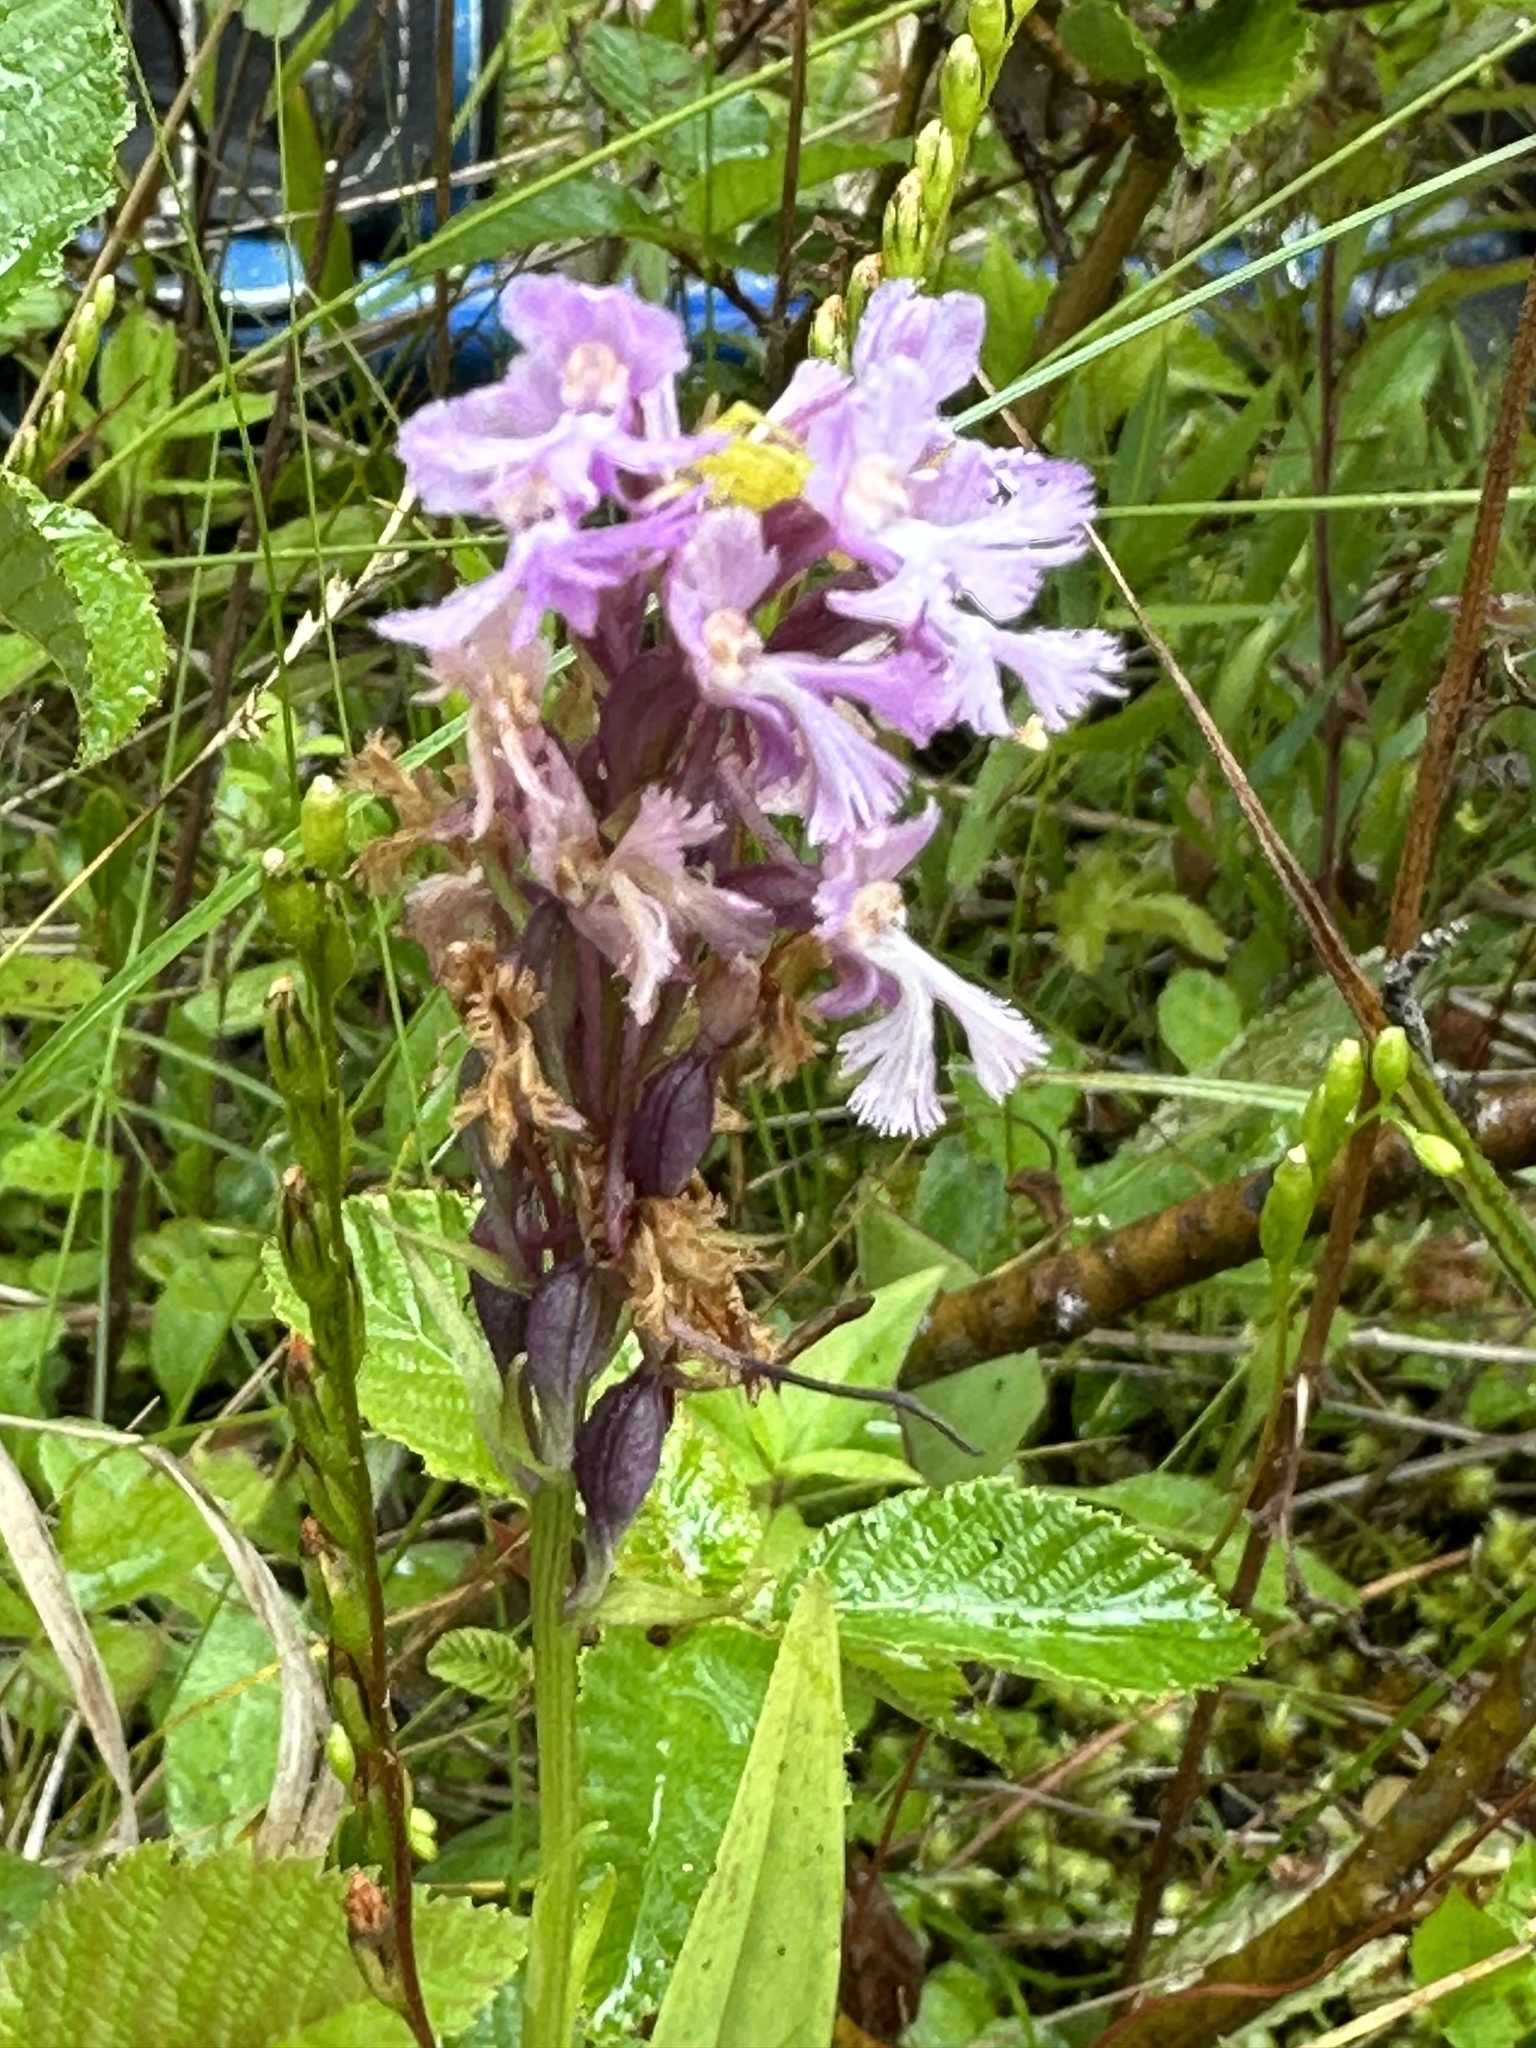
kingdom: Plantae
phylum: Tracheophyta
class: Liliopsida
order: Asparagales
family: Orchidaceae
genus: Platanthera
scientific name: Platanthera psycodes
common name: Lesser purple fringed orchid
